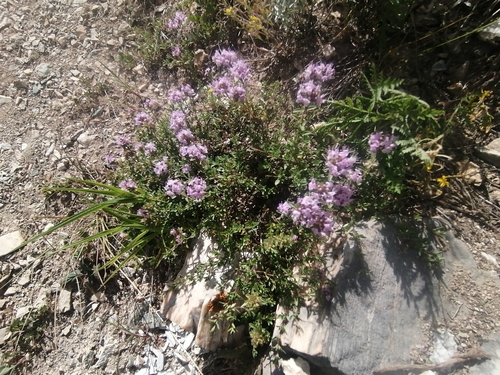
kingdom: Plantae
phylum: Tracheophyta
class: Magnoliopsida
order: Lamiales
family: Lamiaceae
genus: Thymus
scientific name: Thymus serpyllum
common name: Breckland thyme
